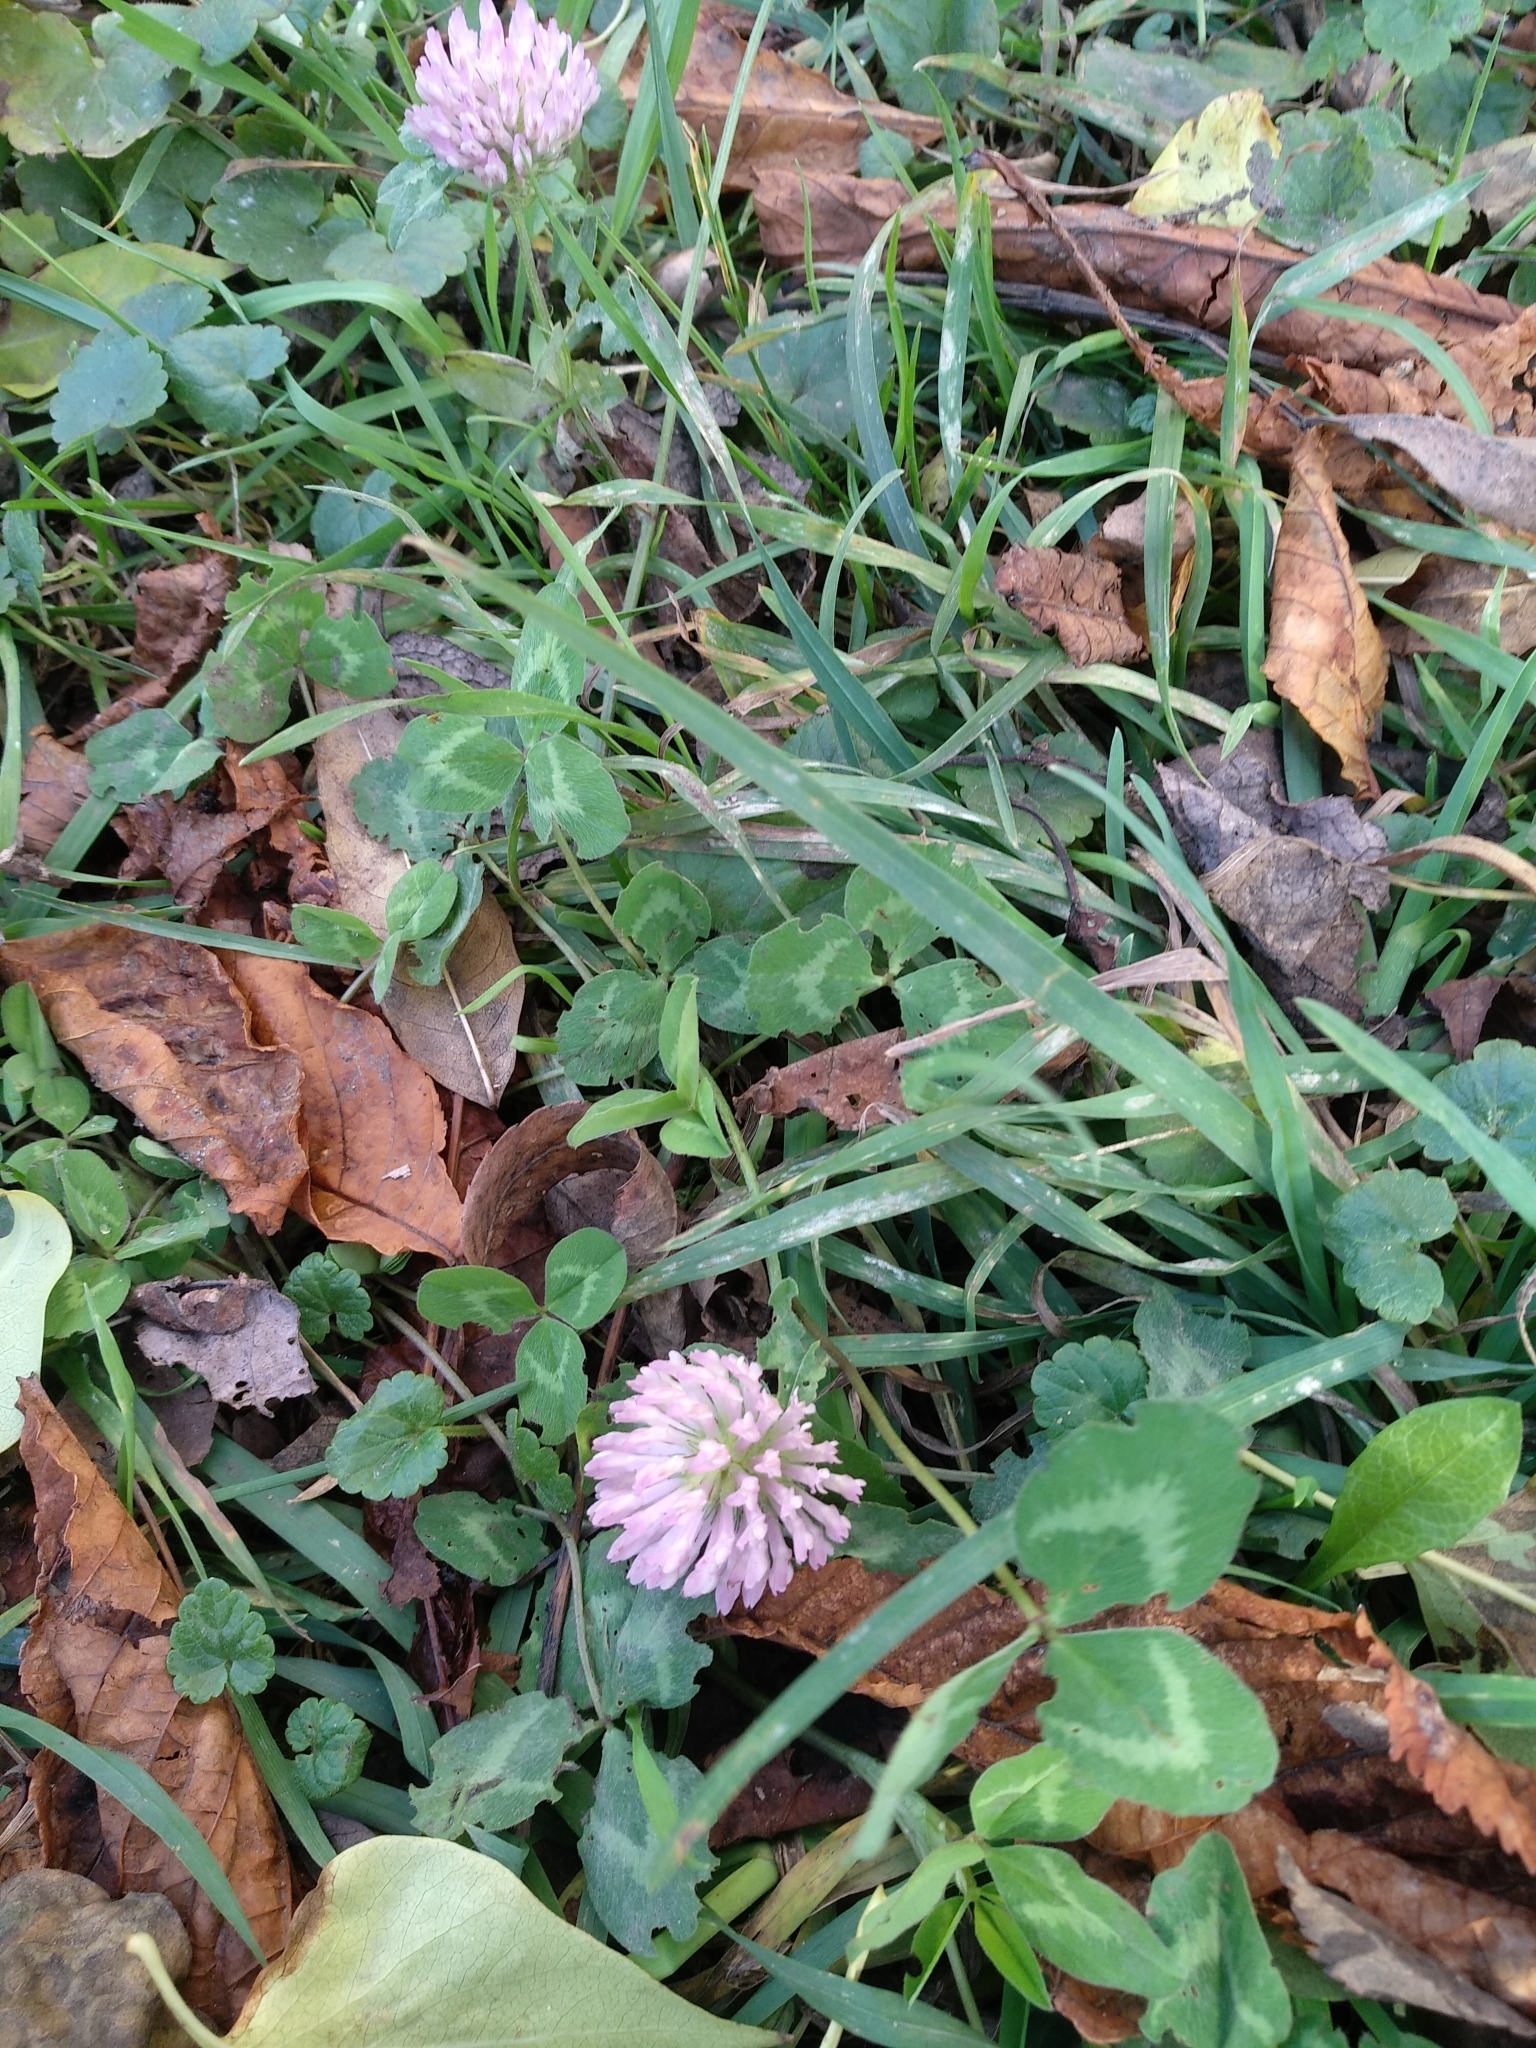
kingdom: Plantae
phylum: Tracheophyta
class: Magnoliopsida
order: Fabales
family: Fabaceae
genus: Trifolium
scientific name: Trifolium pratense
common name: Red clover
